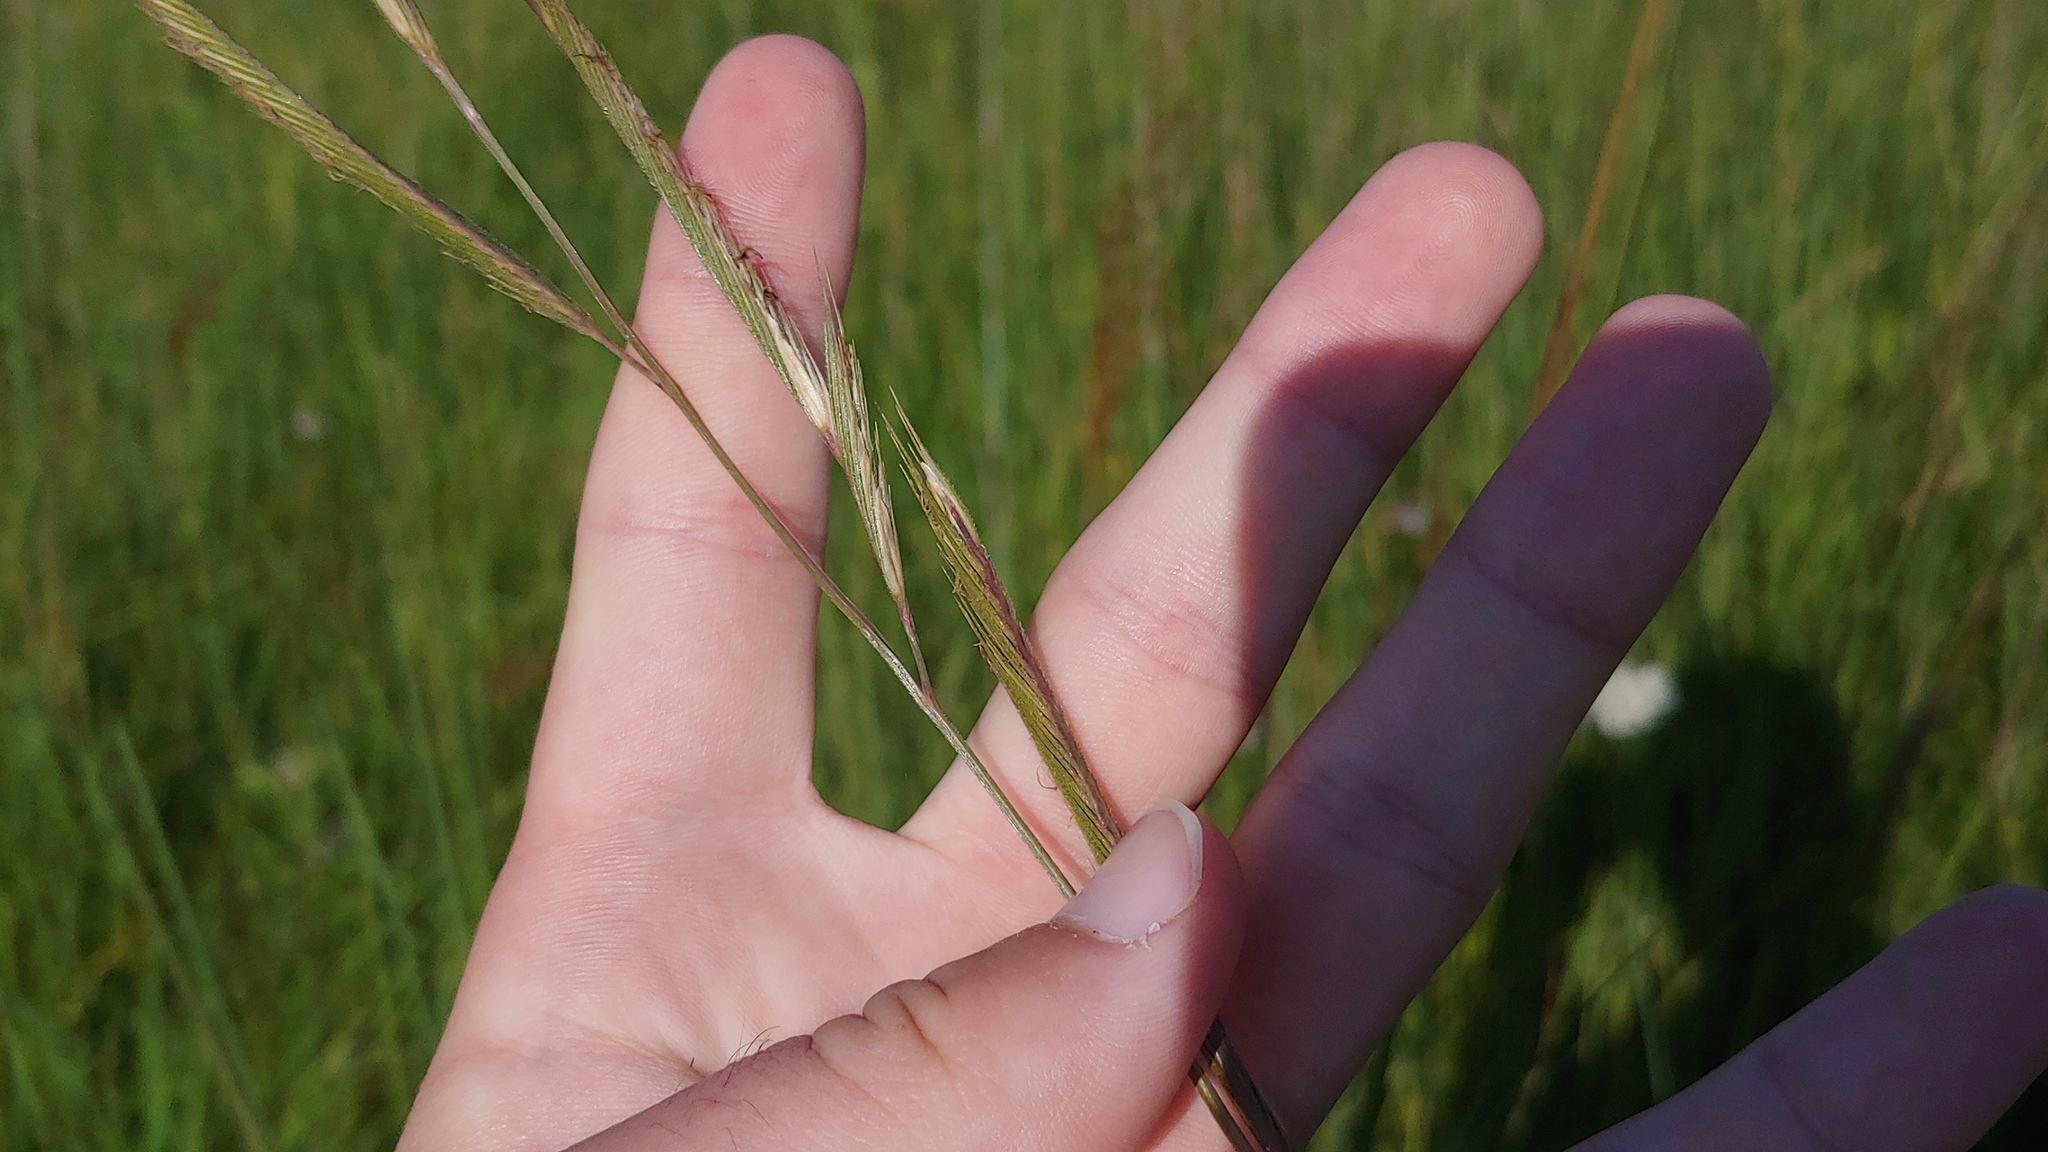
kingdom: Plantae
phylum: Tracheophyta
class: Liliopsida
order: Poales
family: Poaceae
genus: Sporobolus
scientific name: Sporobolus michauxianus
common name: Freshwater cordgrass
